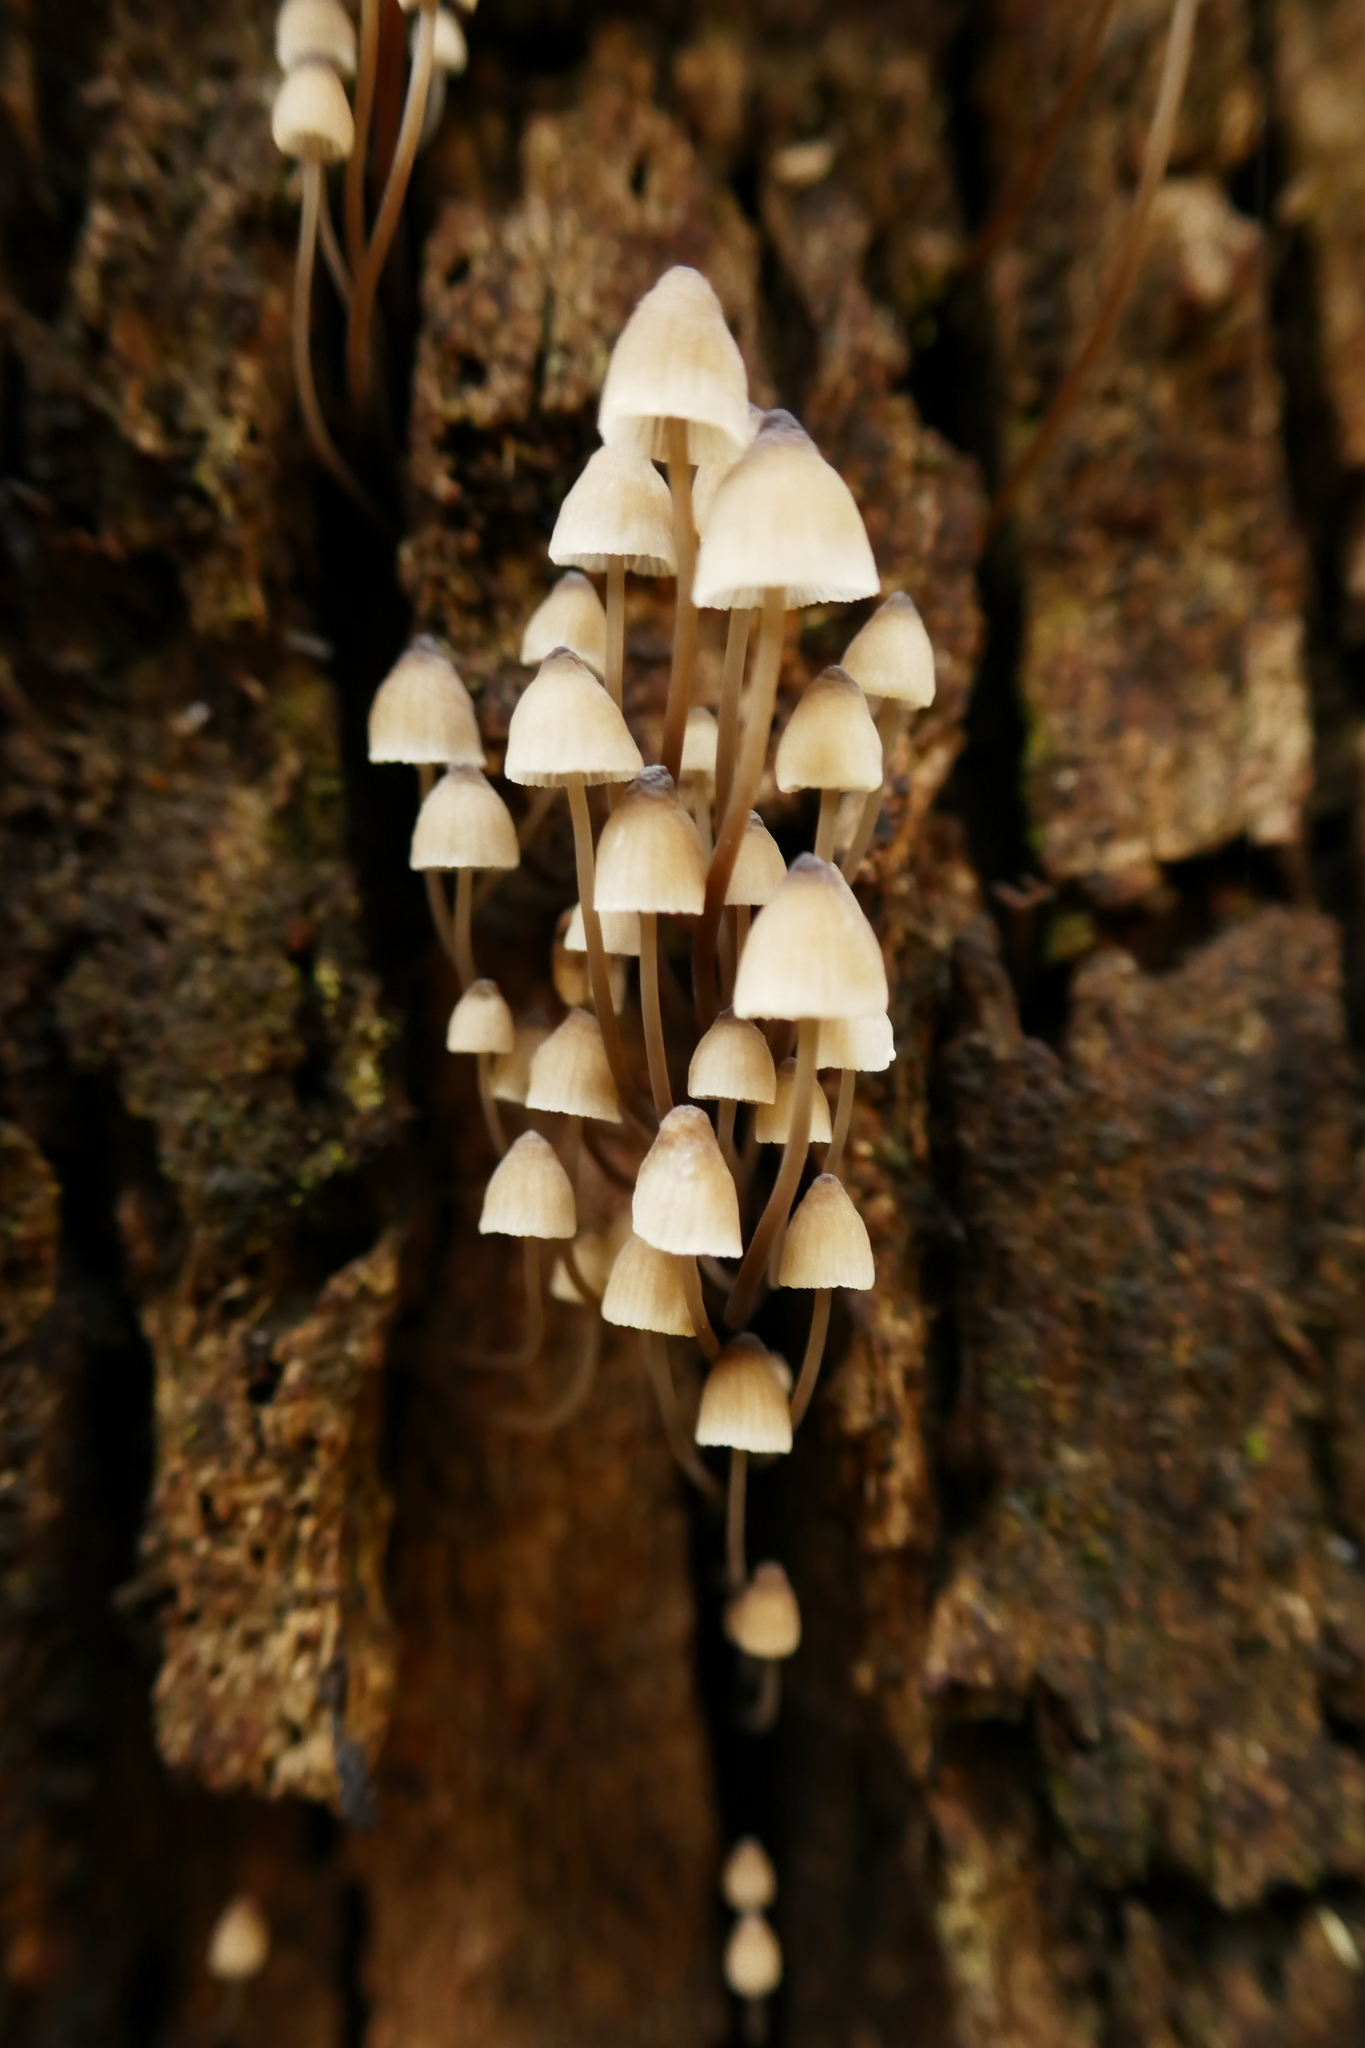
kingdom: Fungi
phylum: Basidiomycota
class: Agaricomycetes
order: Agaricales
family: Mycenaceae
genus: Mycena
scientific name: Mycena subgalericulata
